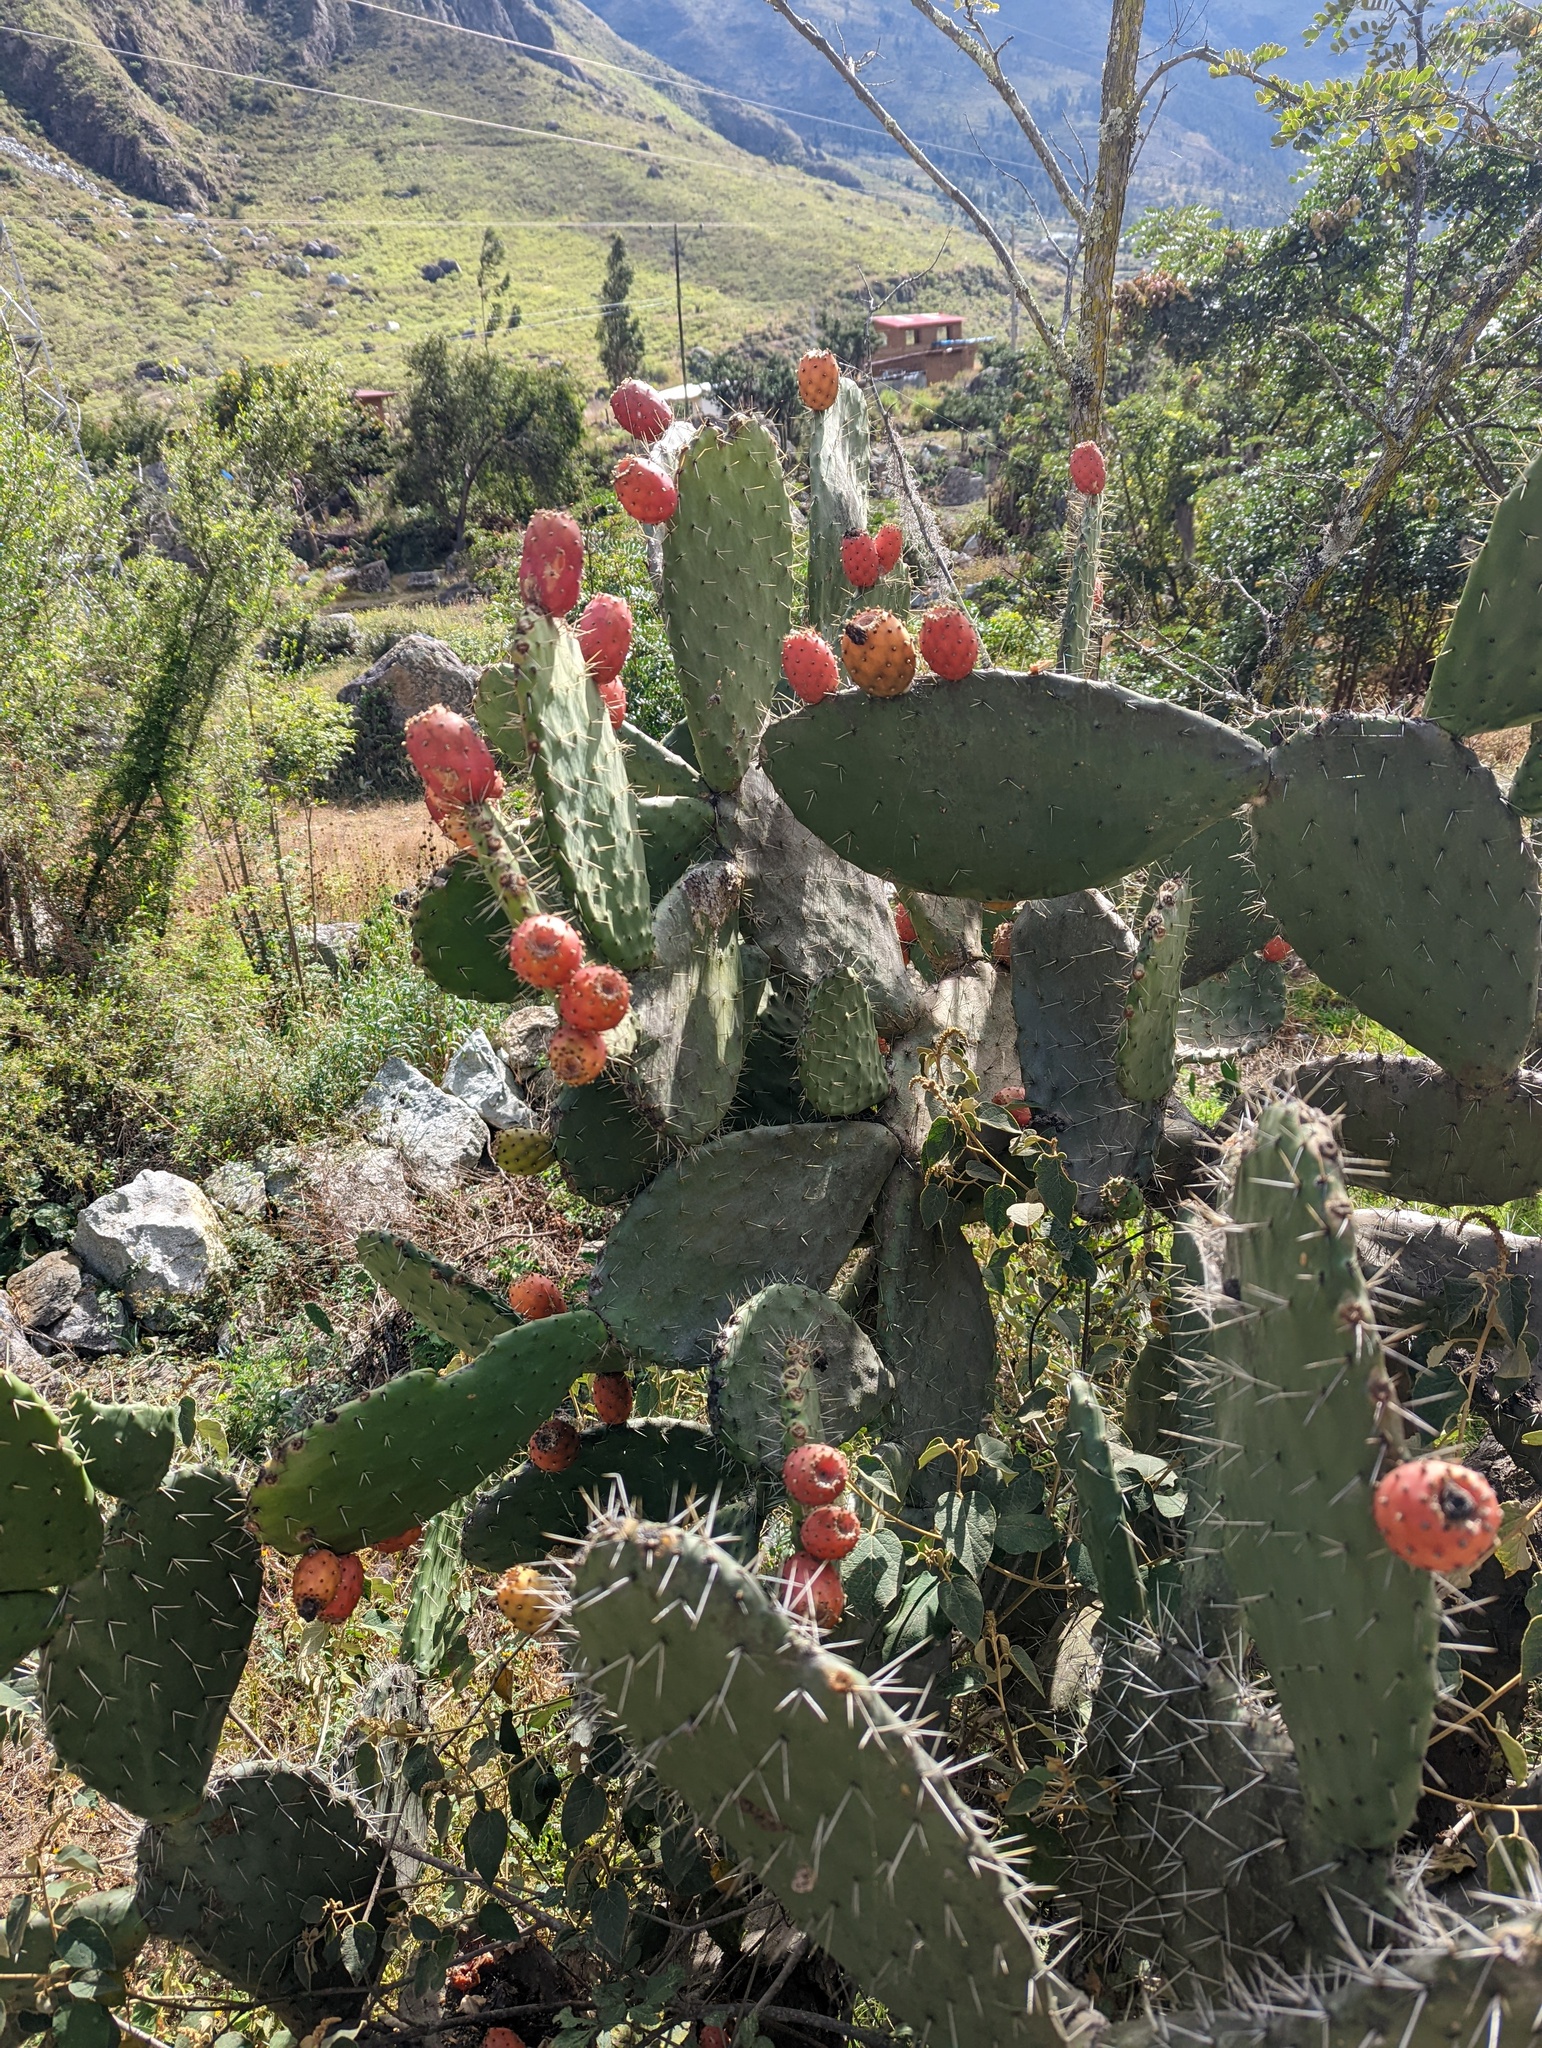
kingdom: Plantae
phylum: Tracheophyta
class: Magnoliopsida
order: Caryophyllales
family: Cactaceae
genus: Opuntia
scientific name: Opuntia ficus-indica
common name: Barbary fig
